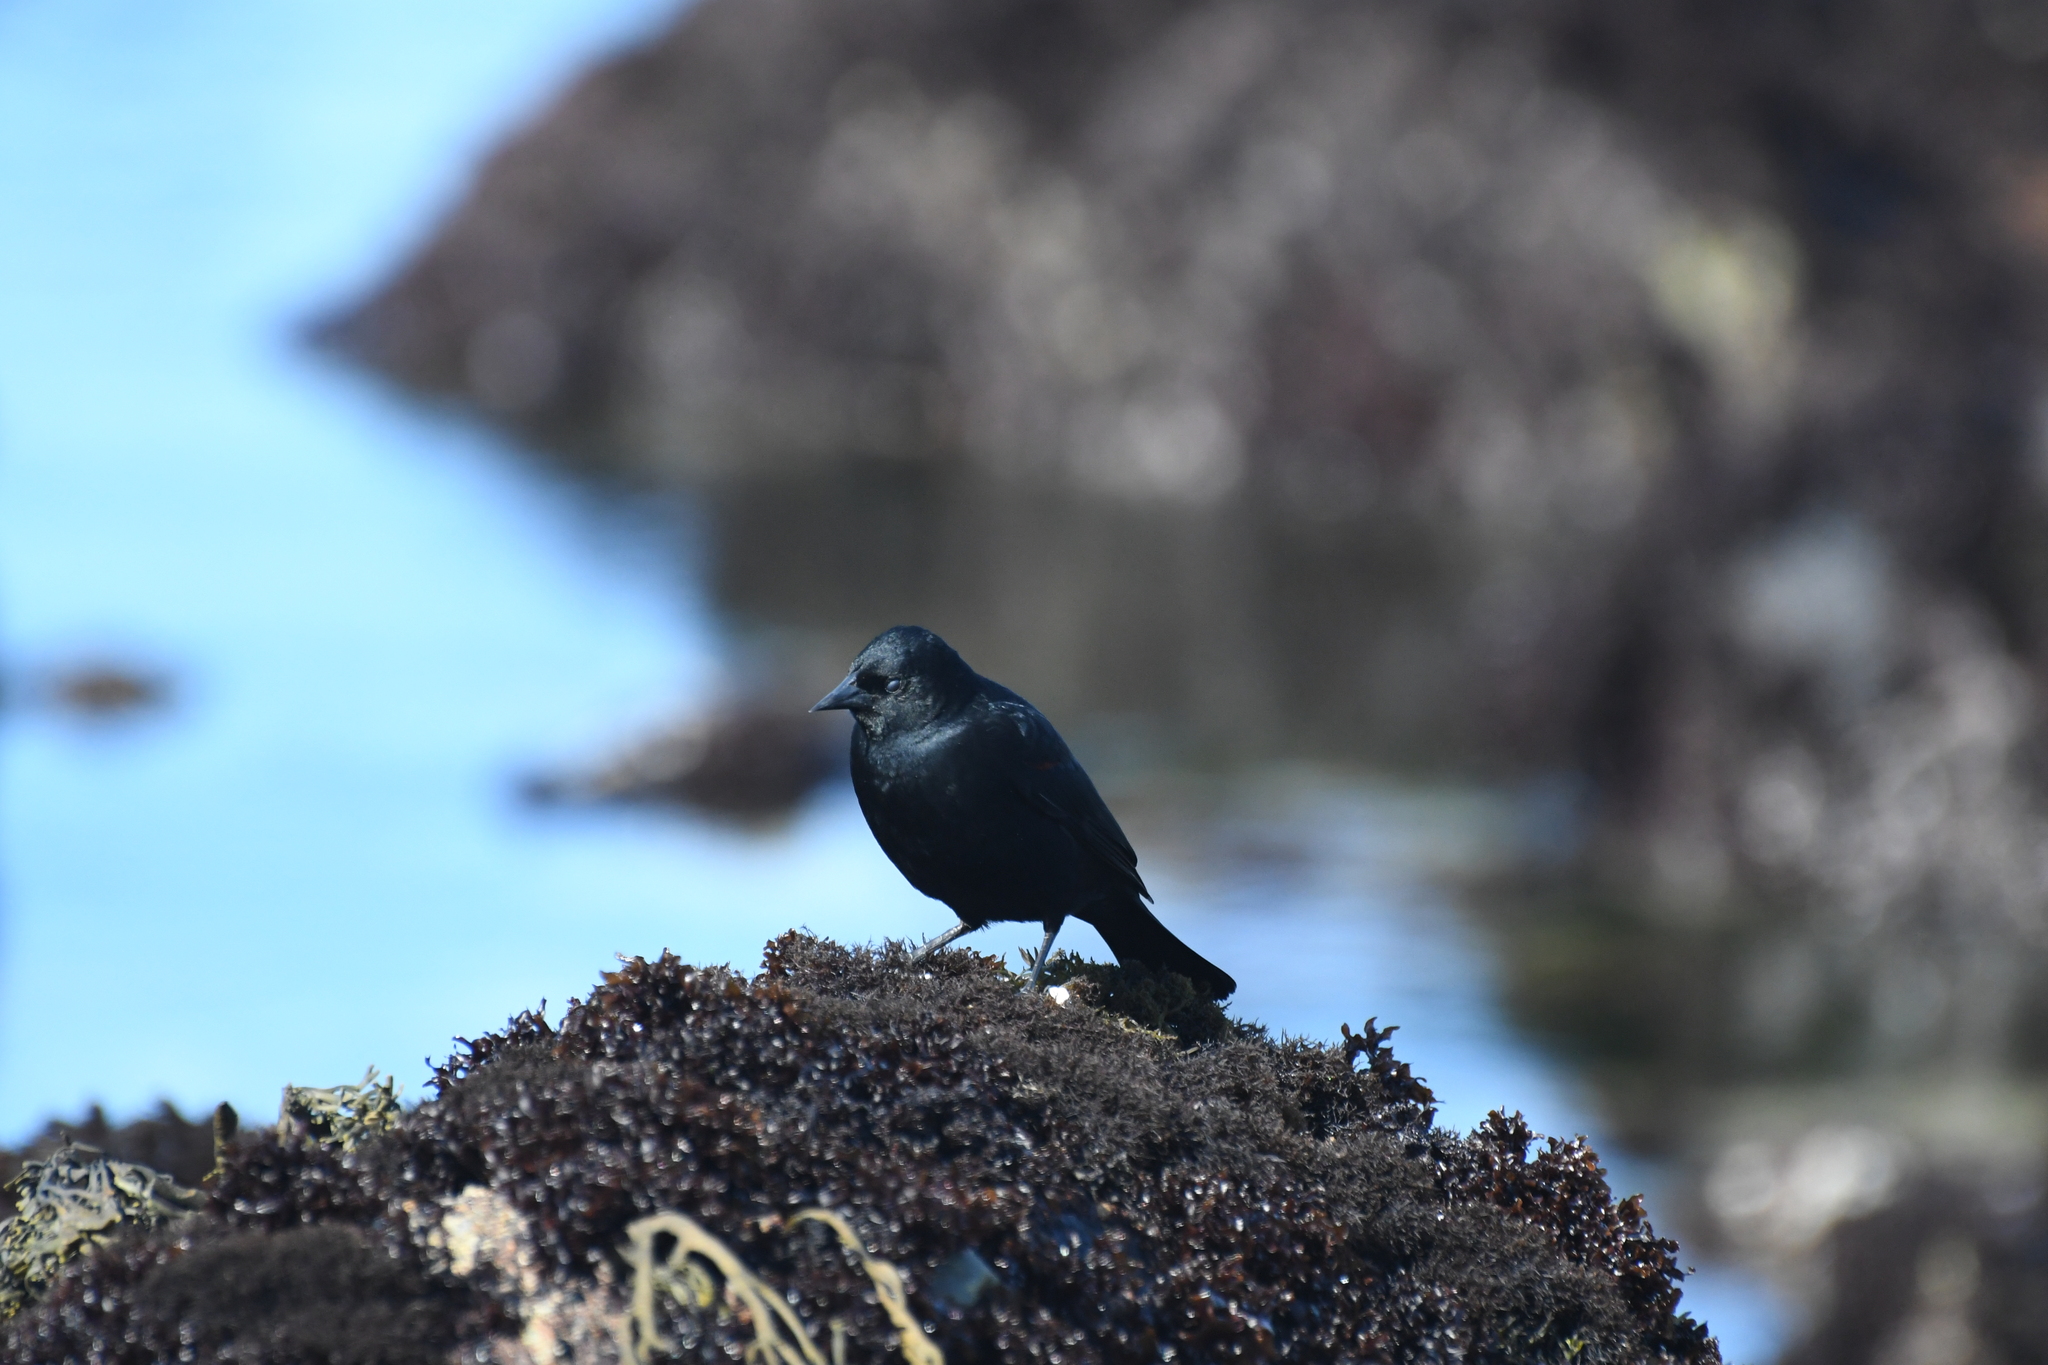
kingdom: Animalia
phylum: Chordata
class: Aves
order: Passeriformes
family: Icteridae
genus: Agelaius
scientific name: Agelaius phoeniceus
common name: Red-winged blackbird
